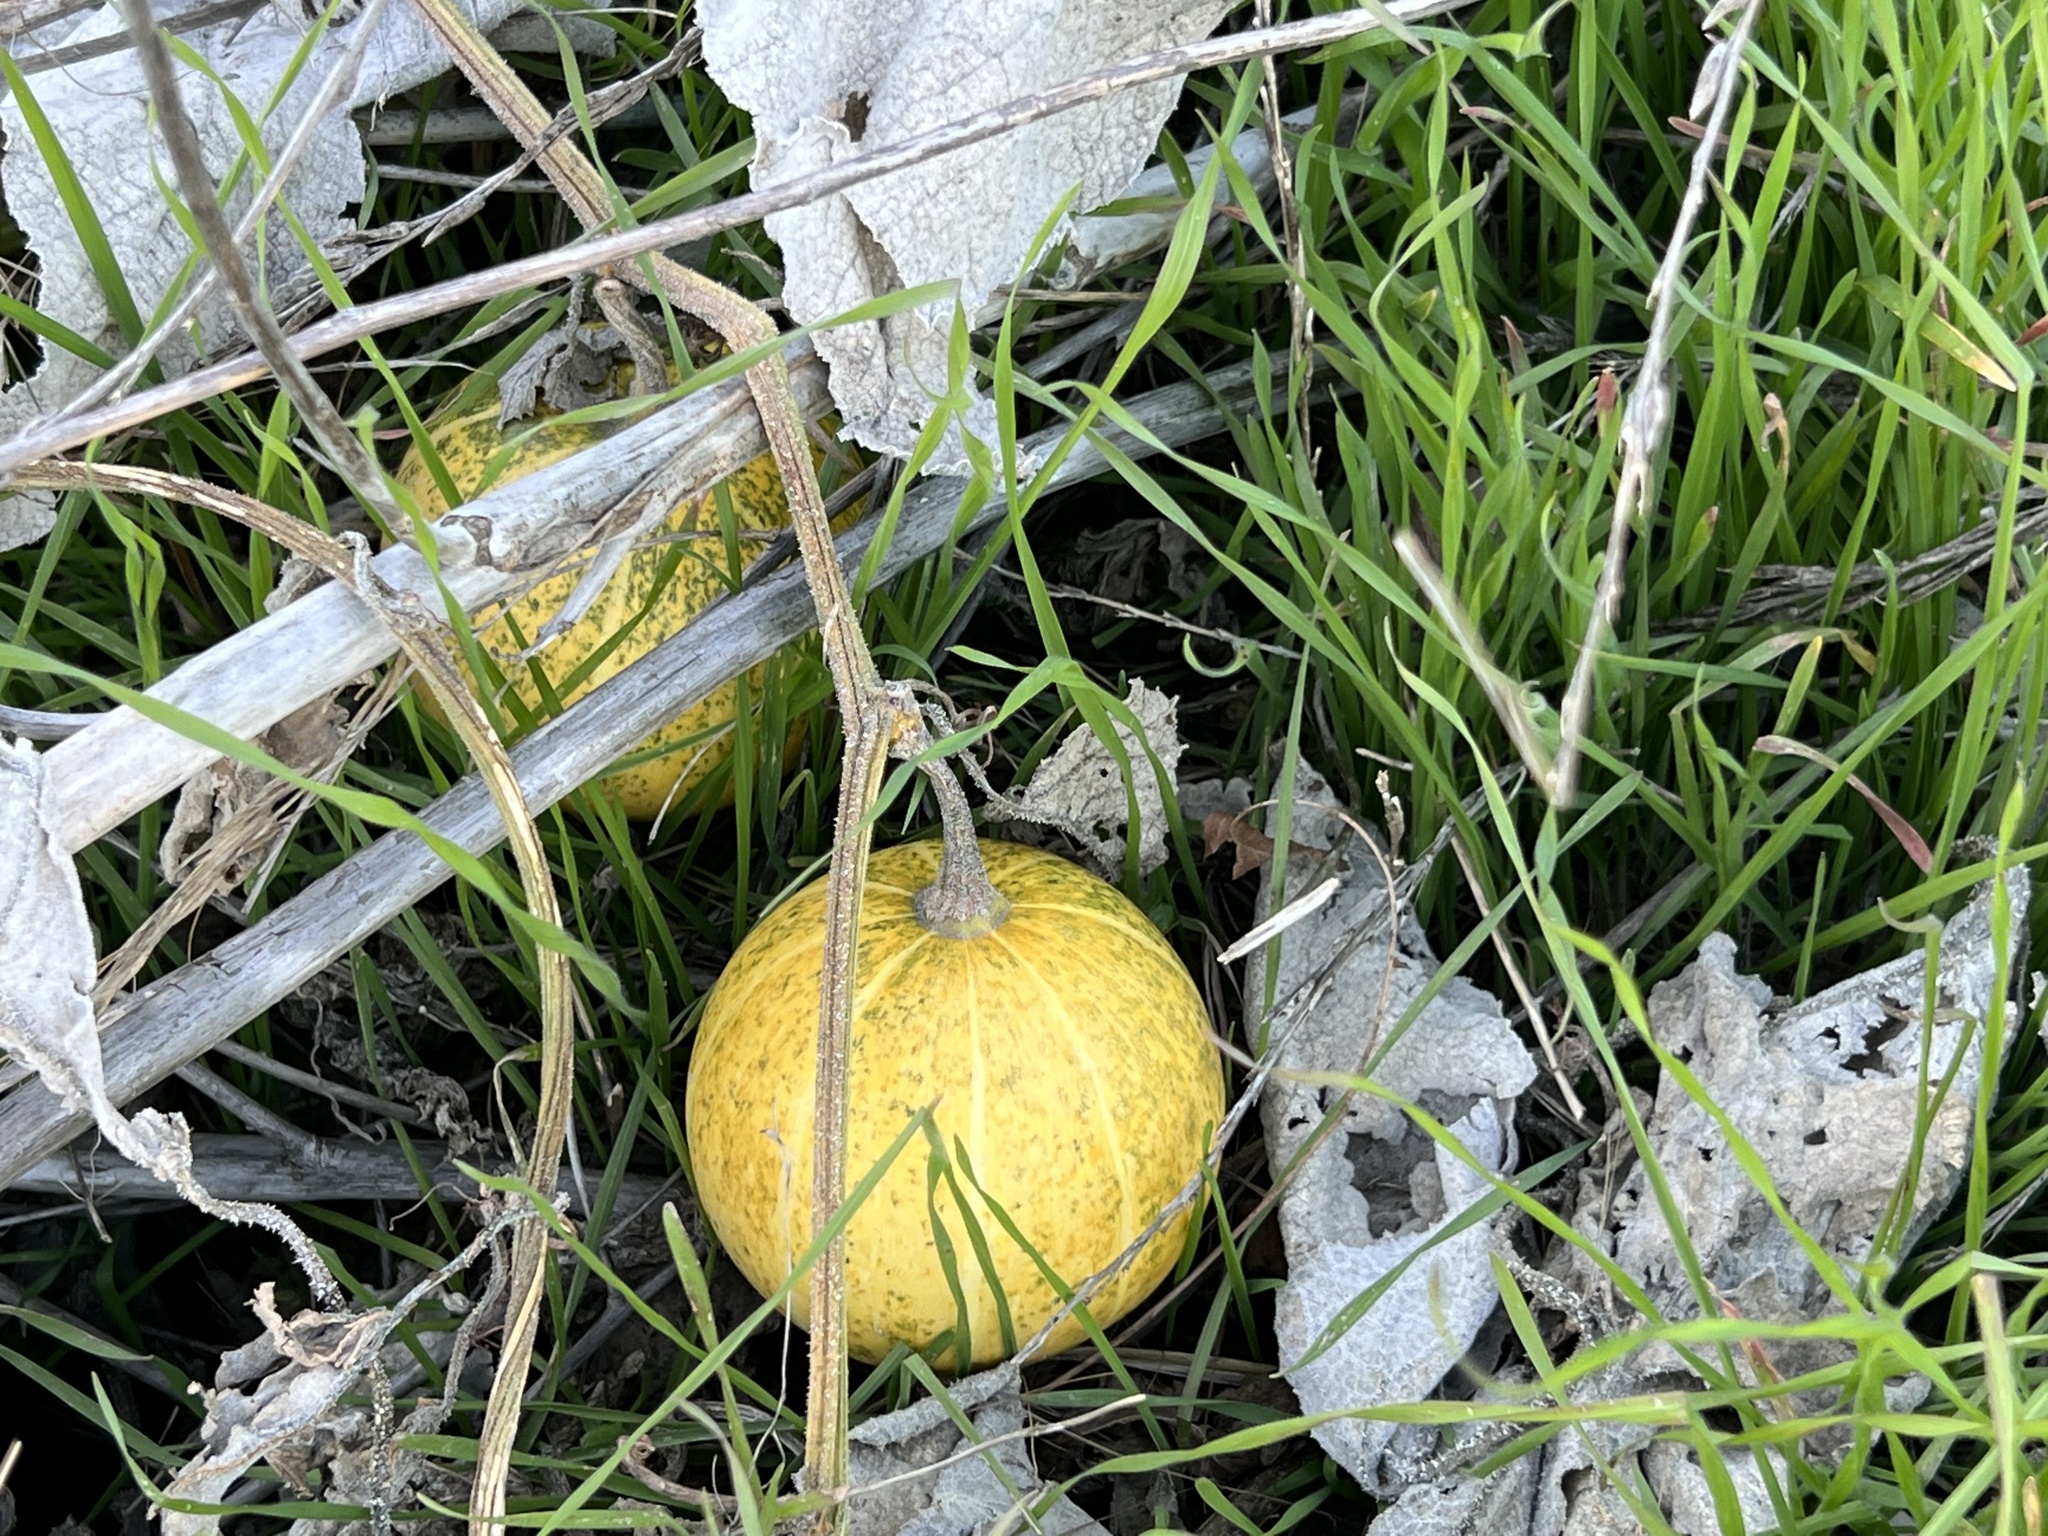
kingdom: Plantae
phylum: Tracheophyta
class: Magnoliopsida
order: Cucurbitales
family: Cucurbitaceae
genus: Cucurbita
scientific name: Cucurbita foetidissima
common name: Buffalo gourd
